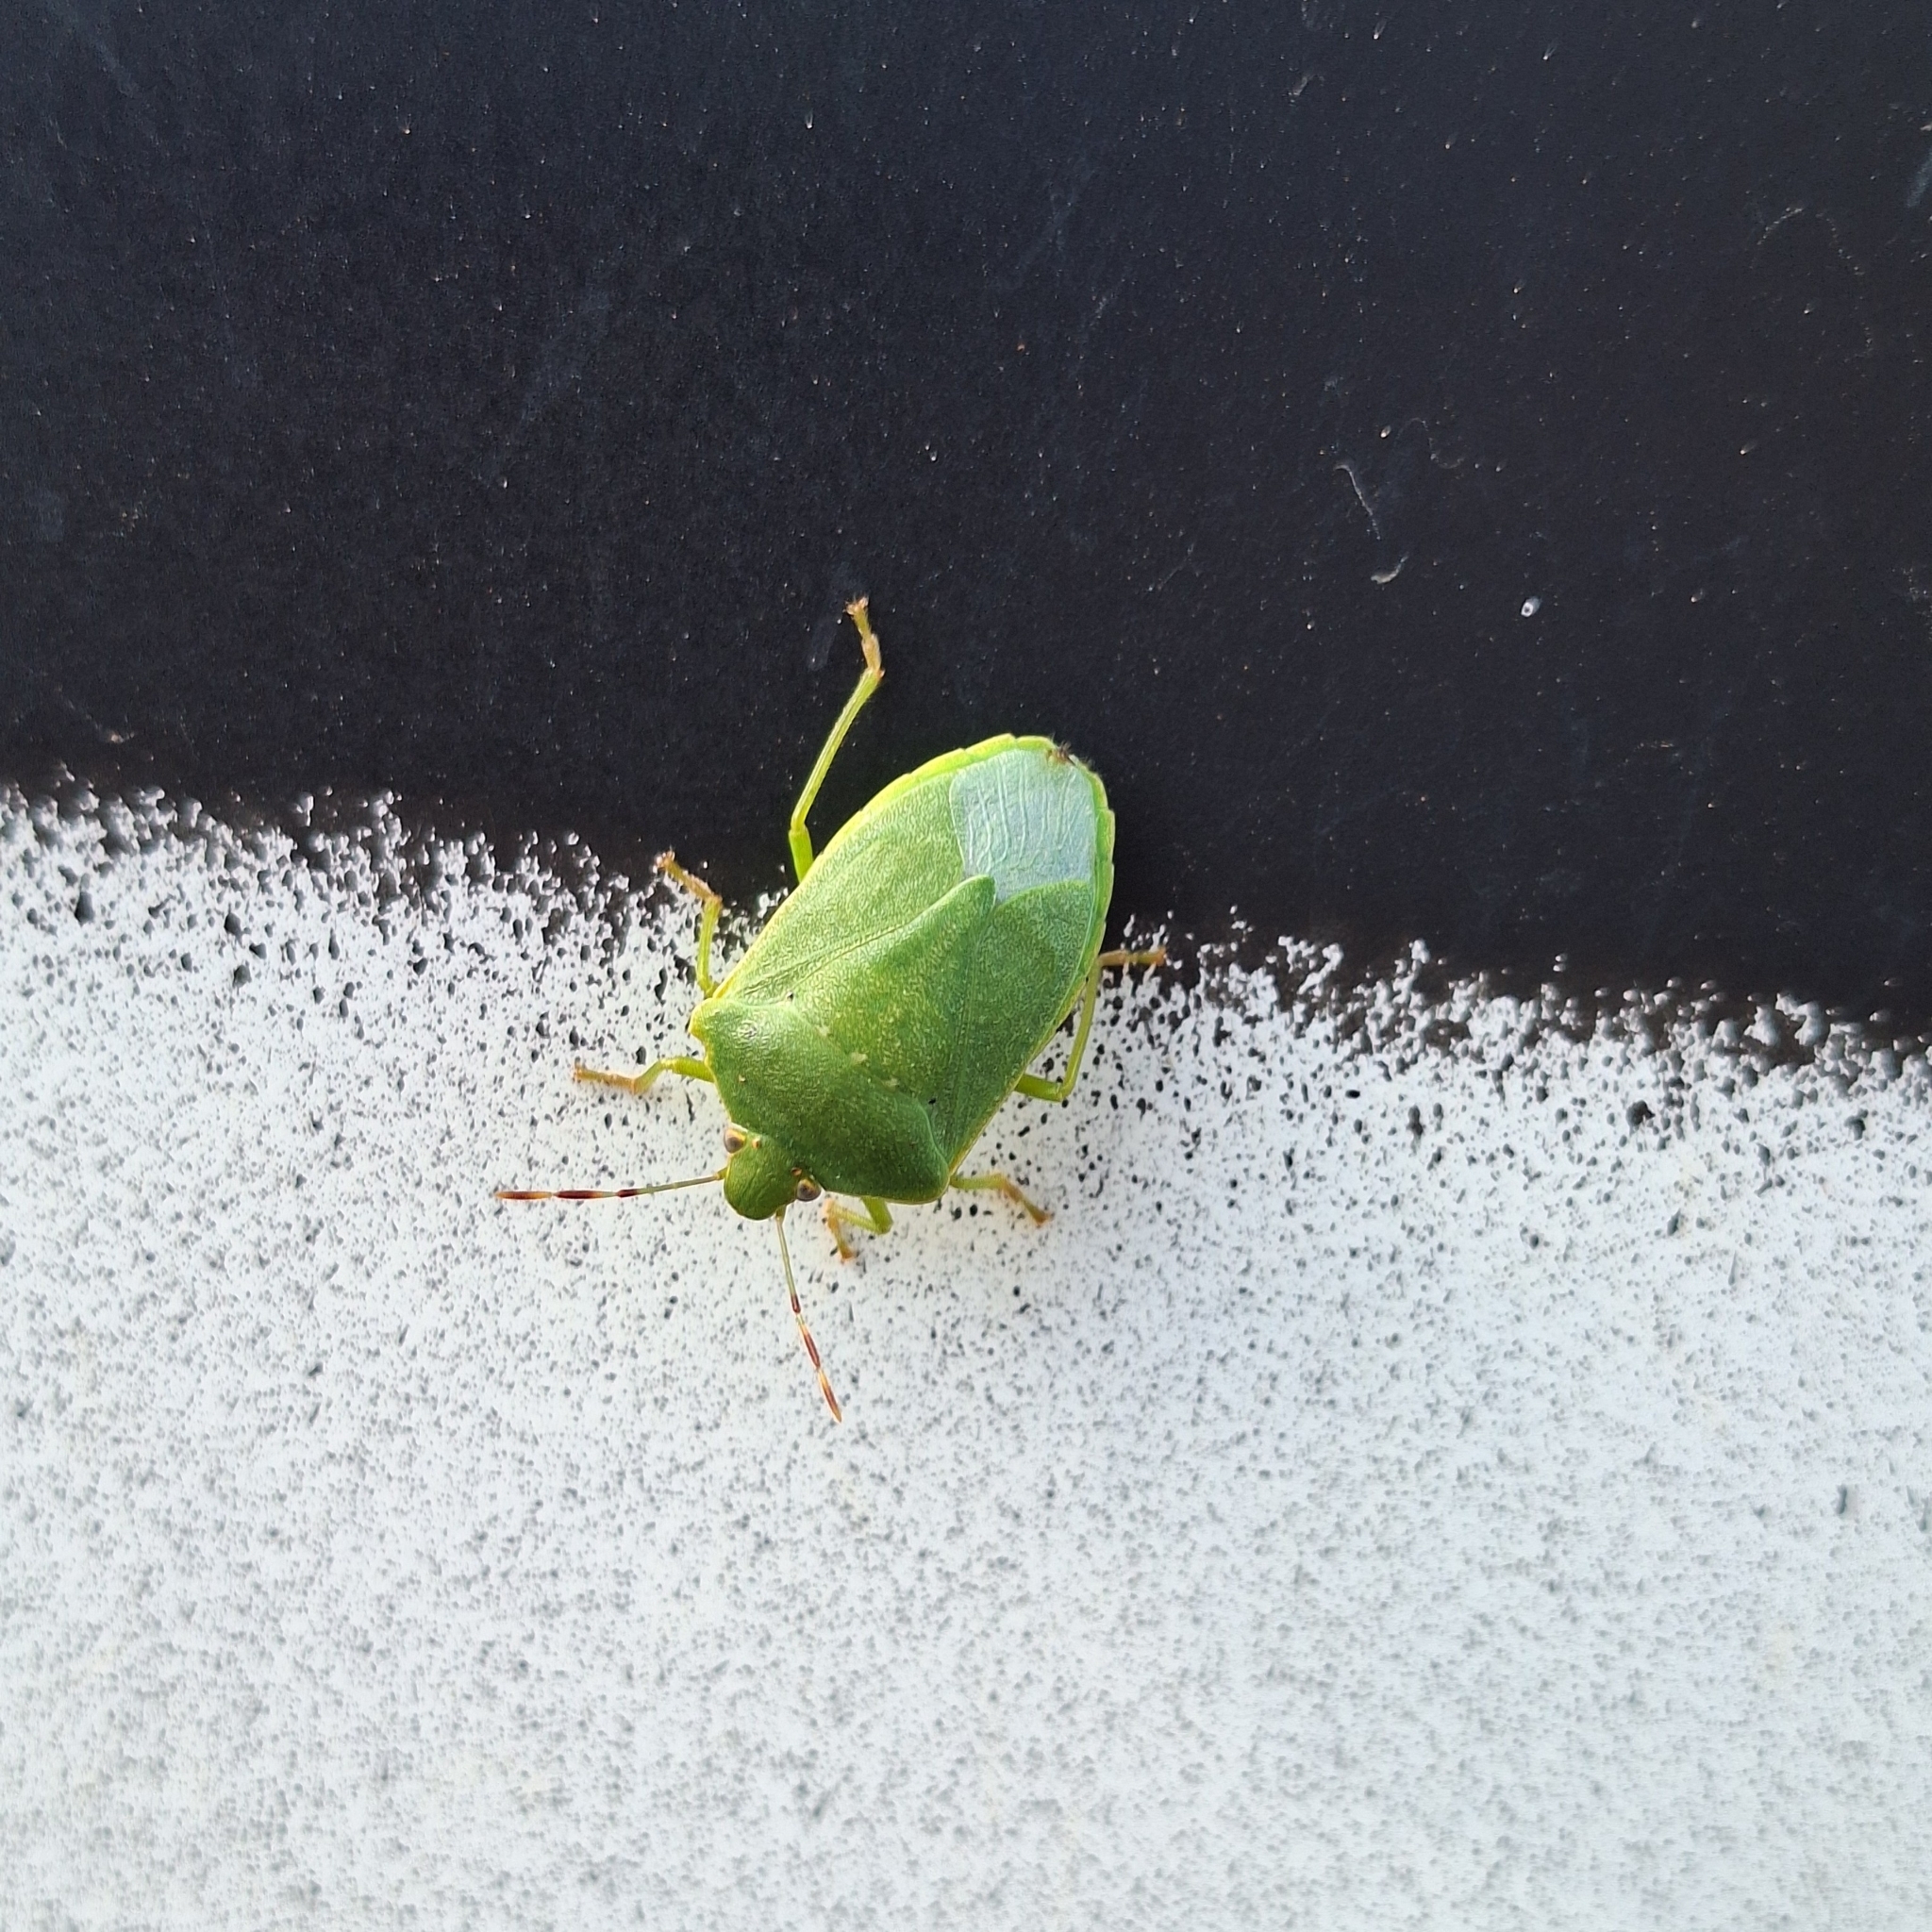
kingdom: Animalia
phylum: Arthropoda
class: Insecta
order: Hemiptera
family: Pentatomidae
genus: Nezara
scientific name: Nezara viridula
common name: Southern green stink bug
